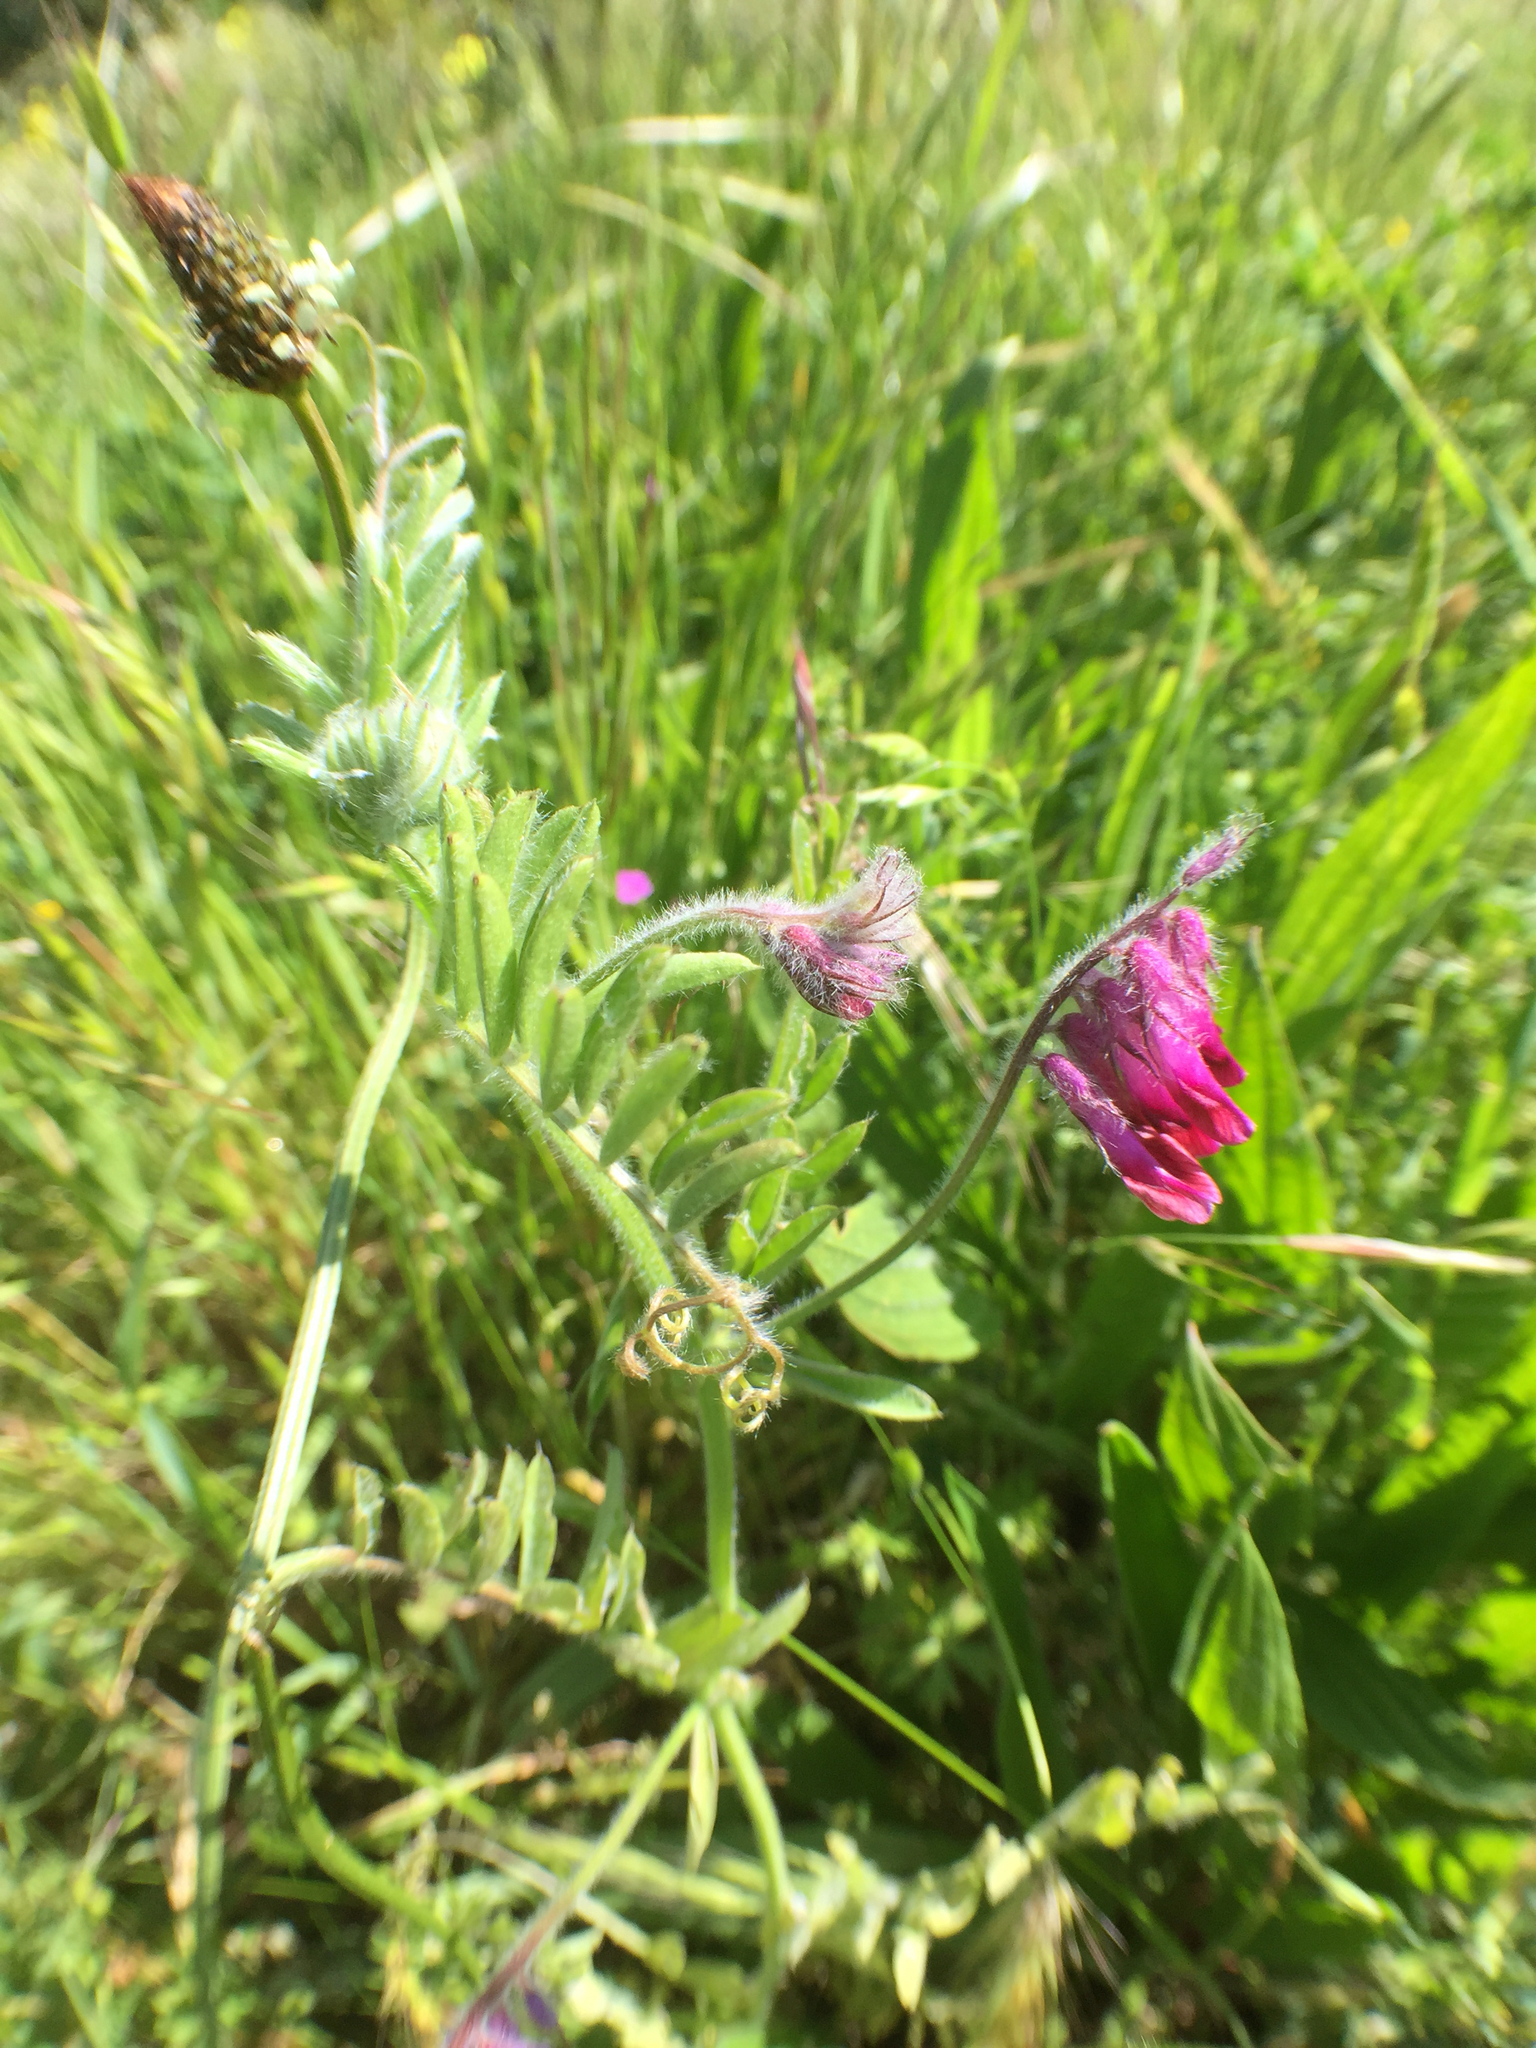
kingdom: Plantae
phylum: Tracheophyta
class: Magnoliopsida
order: Fabales
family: Fabaceae
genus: Vicia
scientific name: Vicia benghalensis
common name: Purple vetch
